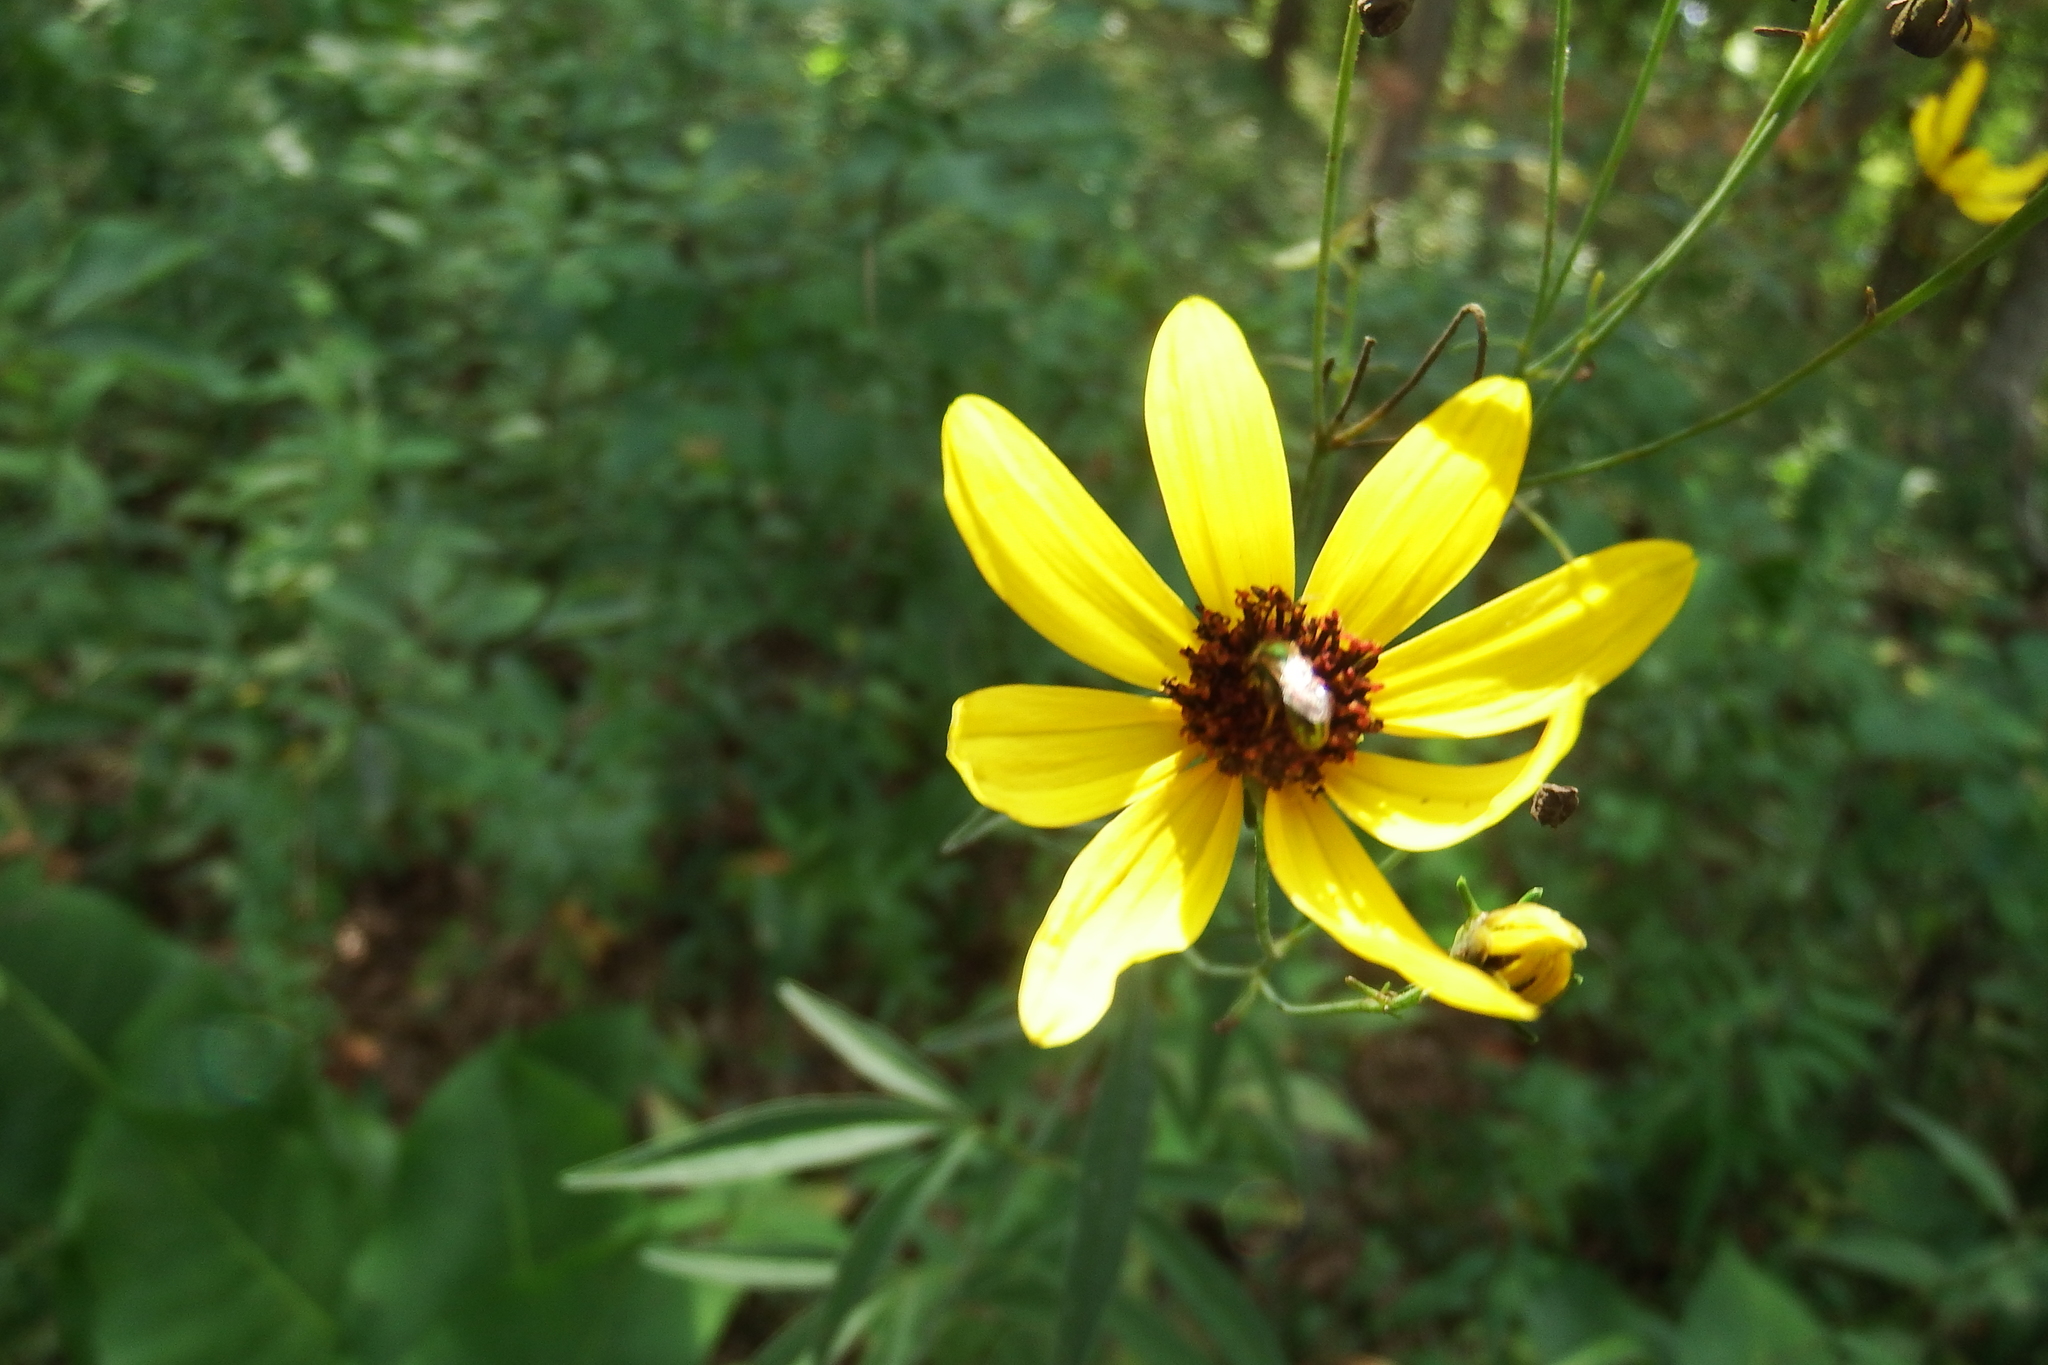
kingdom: Plantae
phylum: Tracheophyta
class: Magnoliopsida
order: Asterales
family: Asteraceae
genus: Coreopsis
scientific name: Coreopsis tripteris
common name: Tall coreopsis
